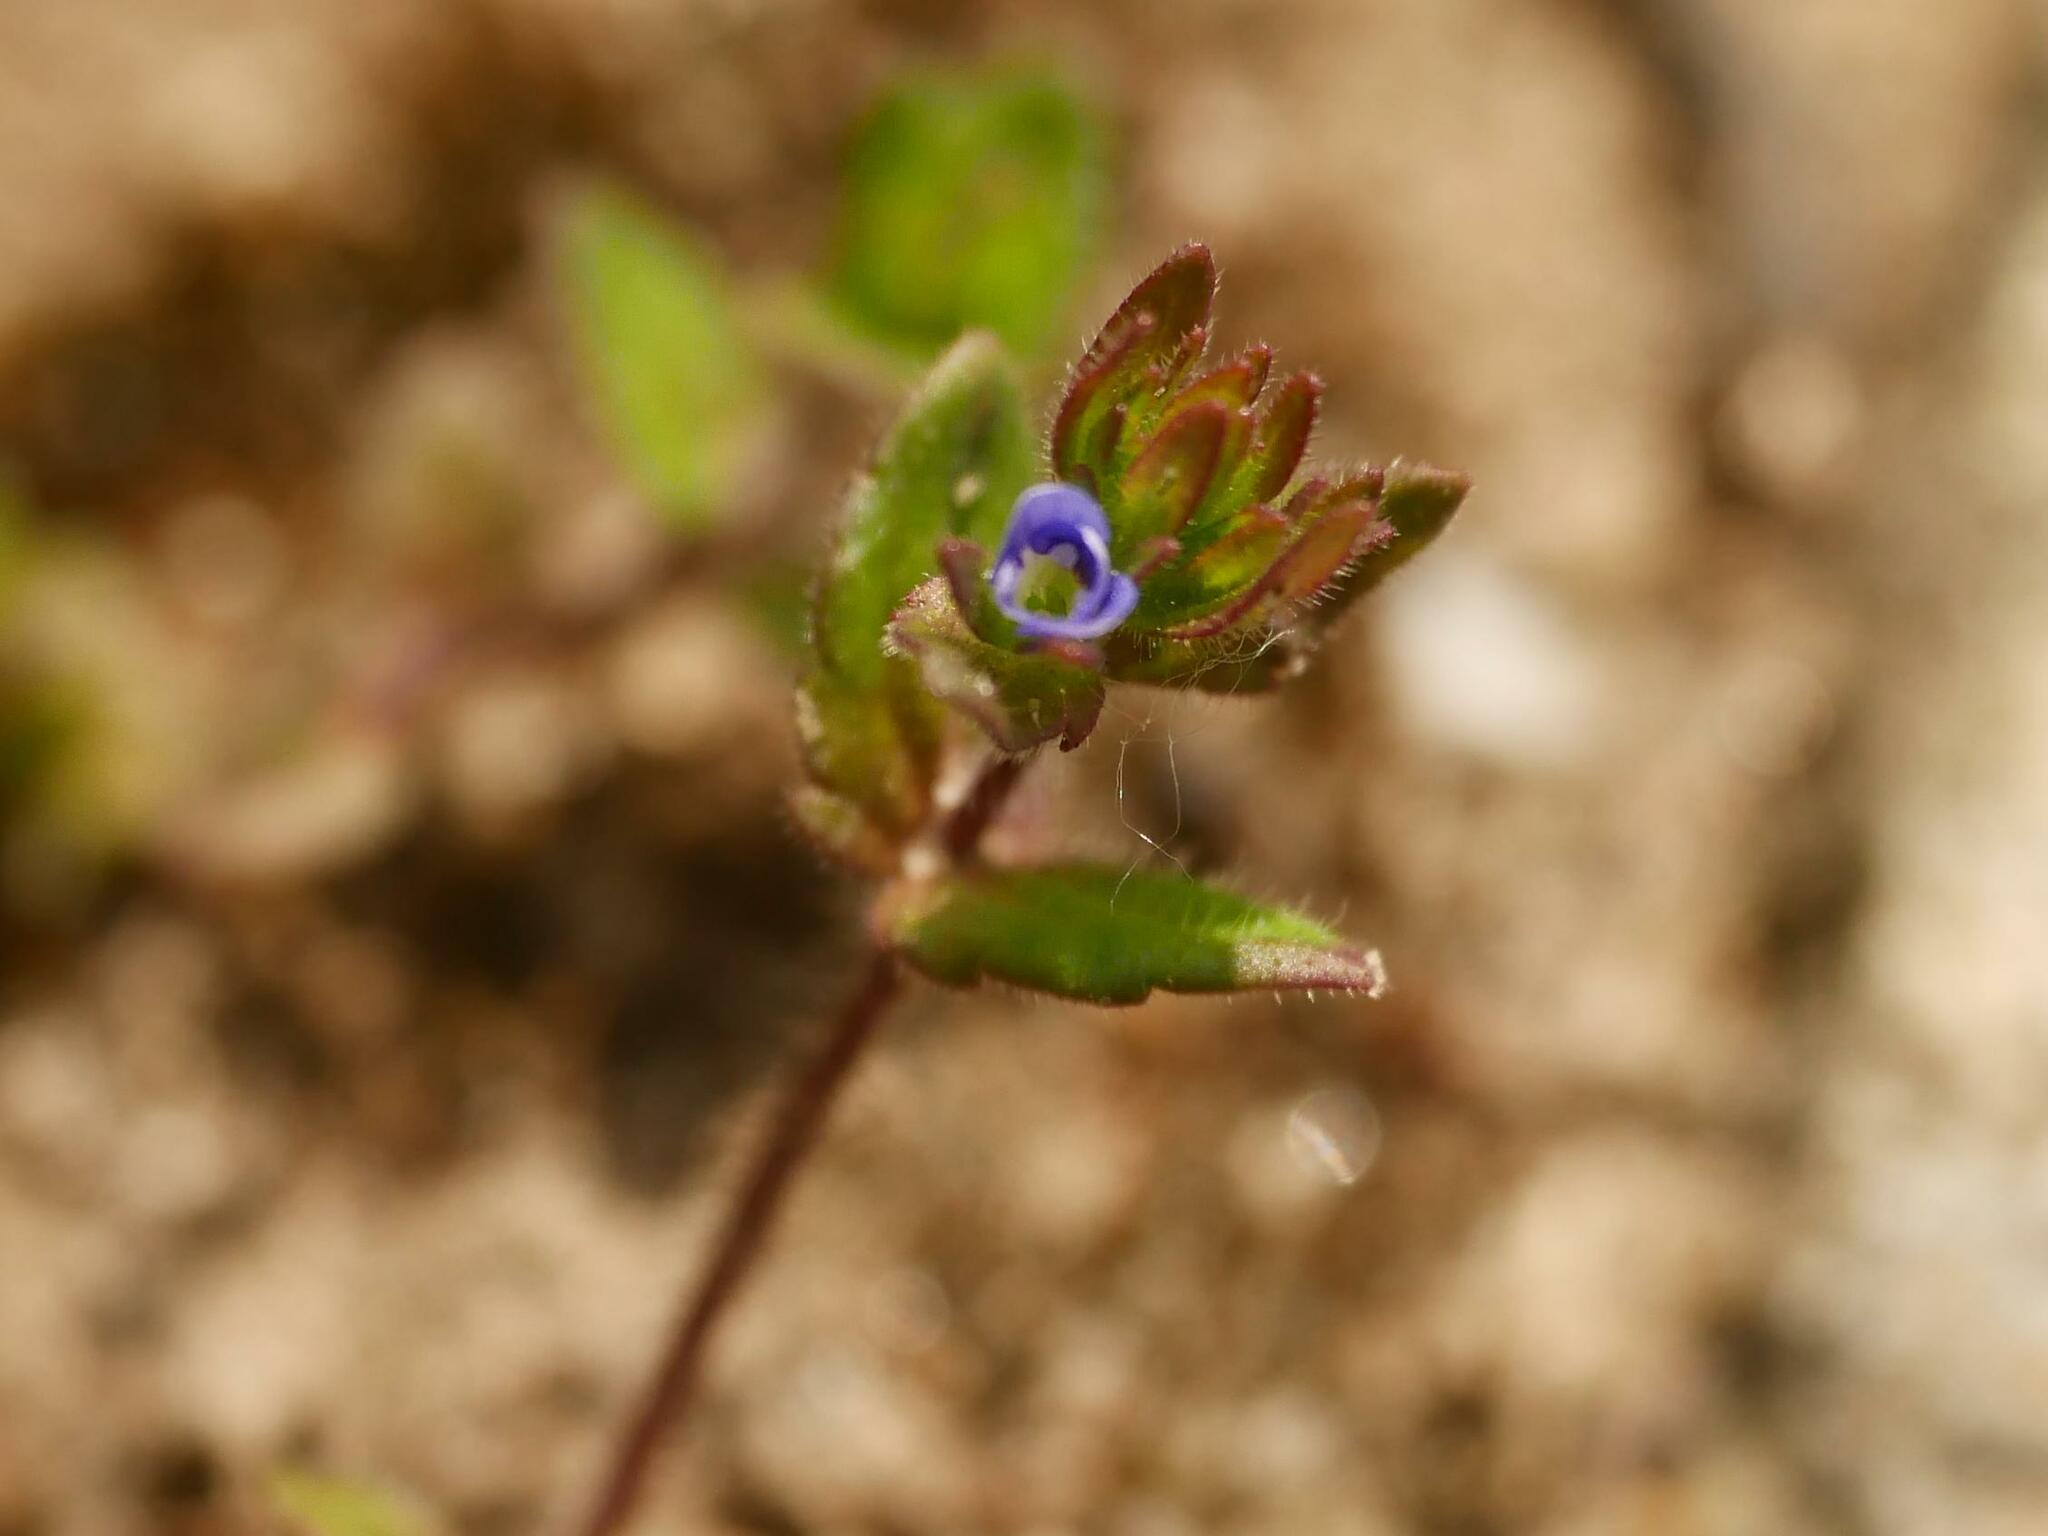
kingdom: Plantae
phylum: Tracheophyta
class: Magnoliopsida
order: Lamiales
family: Plantaginaceae
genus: Veronica
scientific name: Veronica arvensis
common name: Corn speedwell
